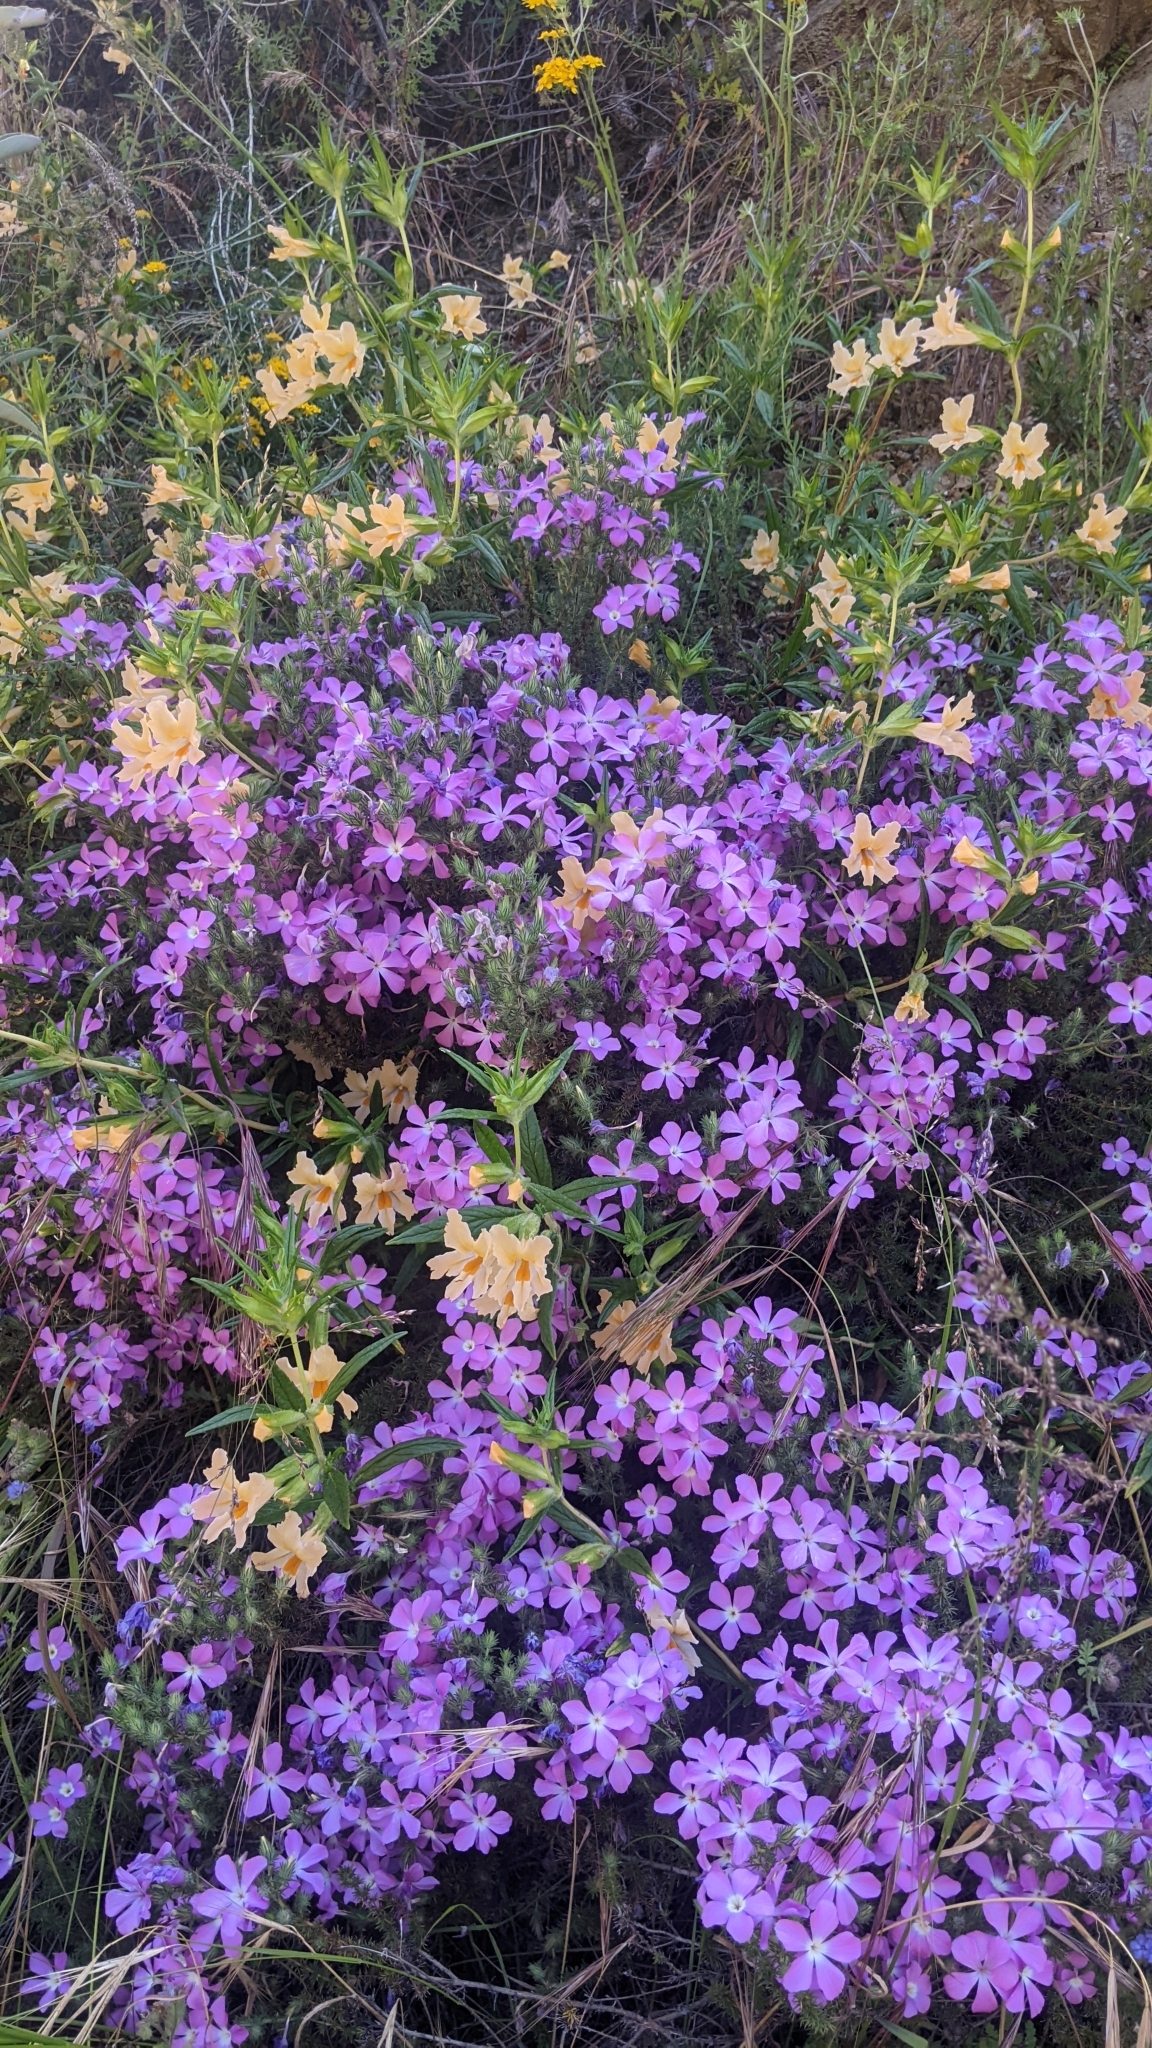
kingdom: Plantae
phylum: Tracheophyta
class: Magnoliopsida
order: Ericales
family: Polemoniaceae
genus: Linanthus
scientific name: Linanthus californicus
